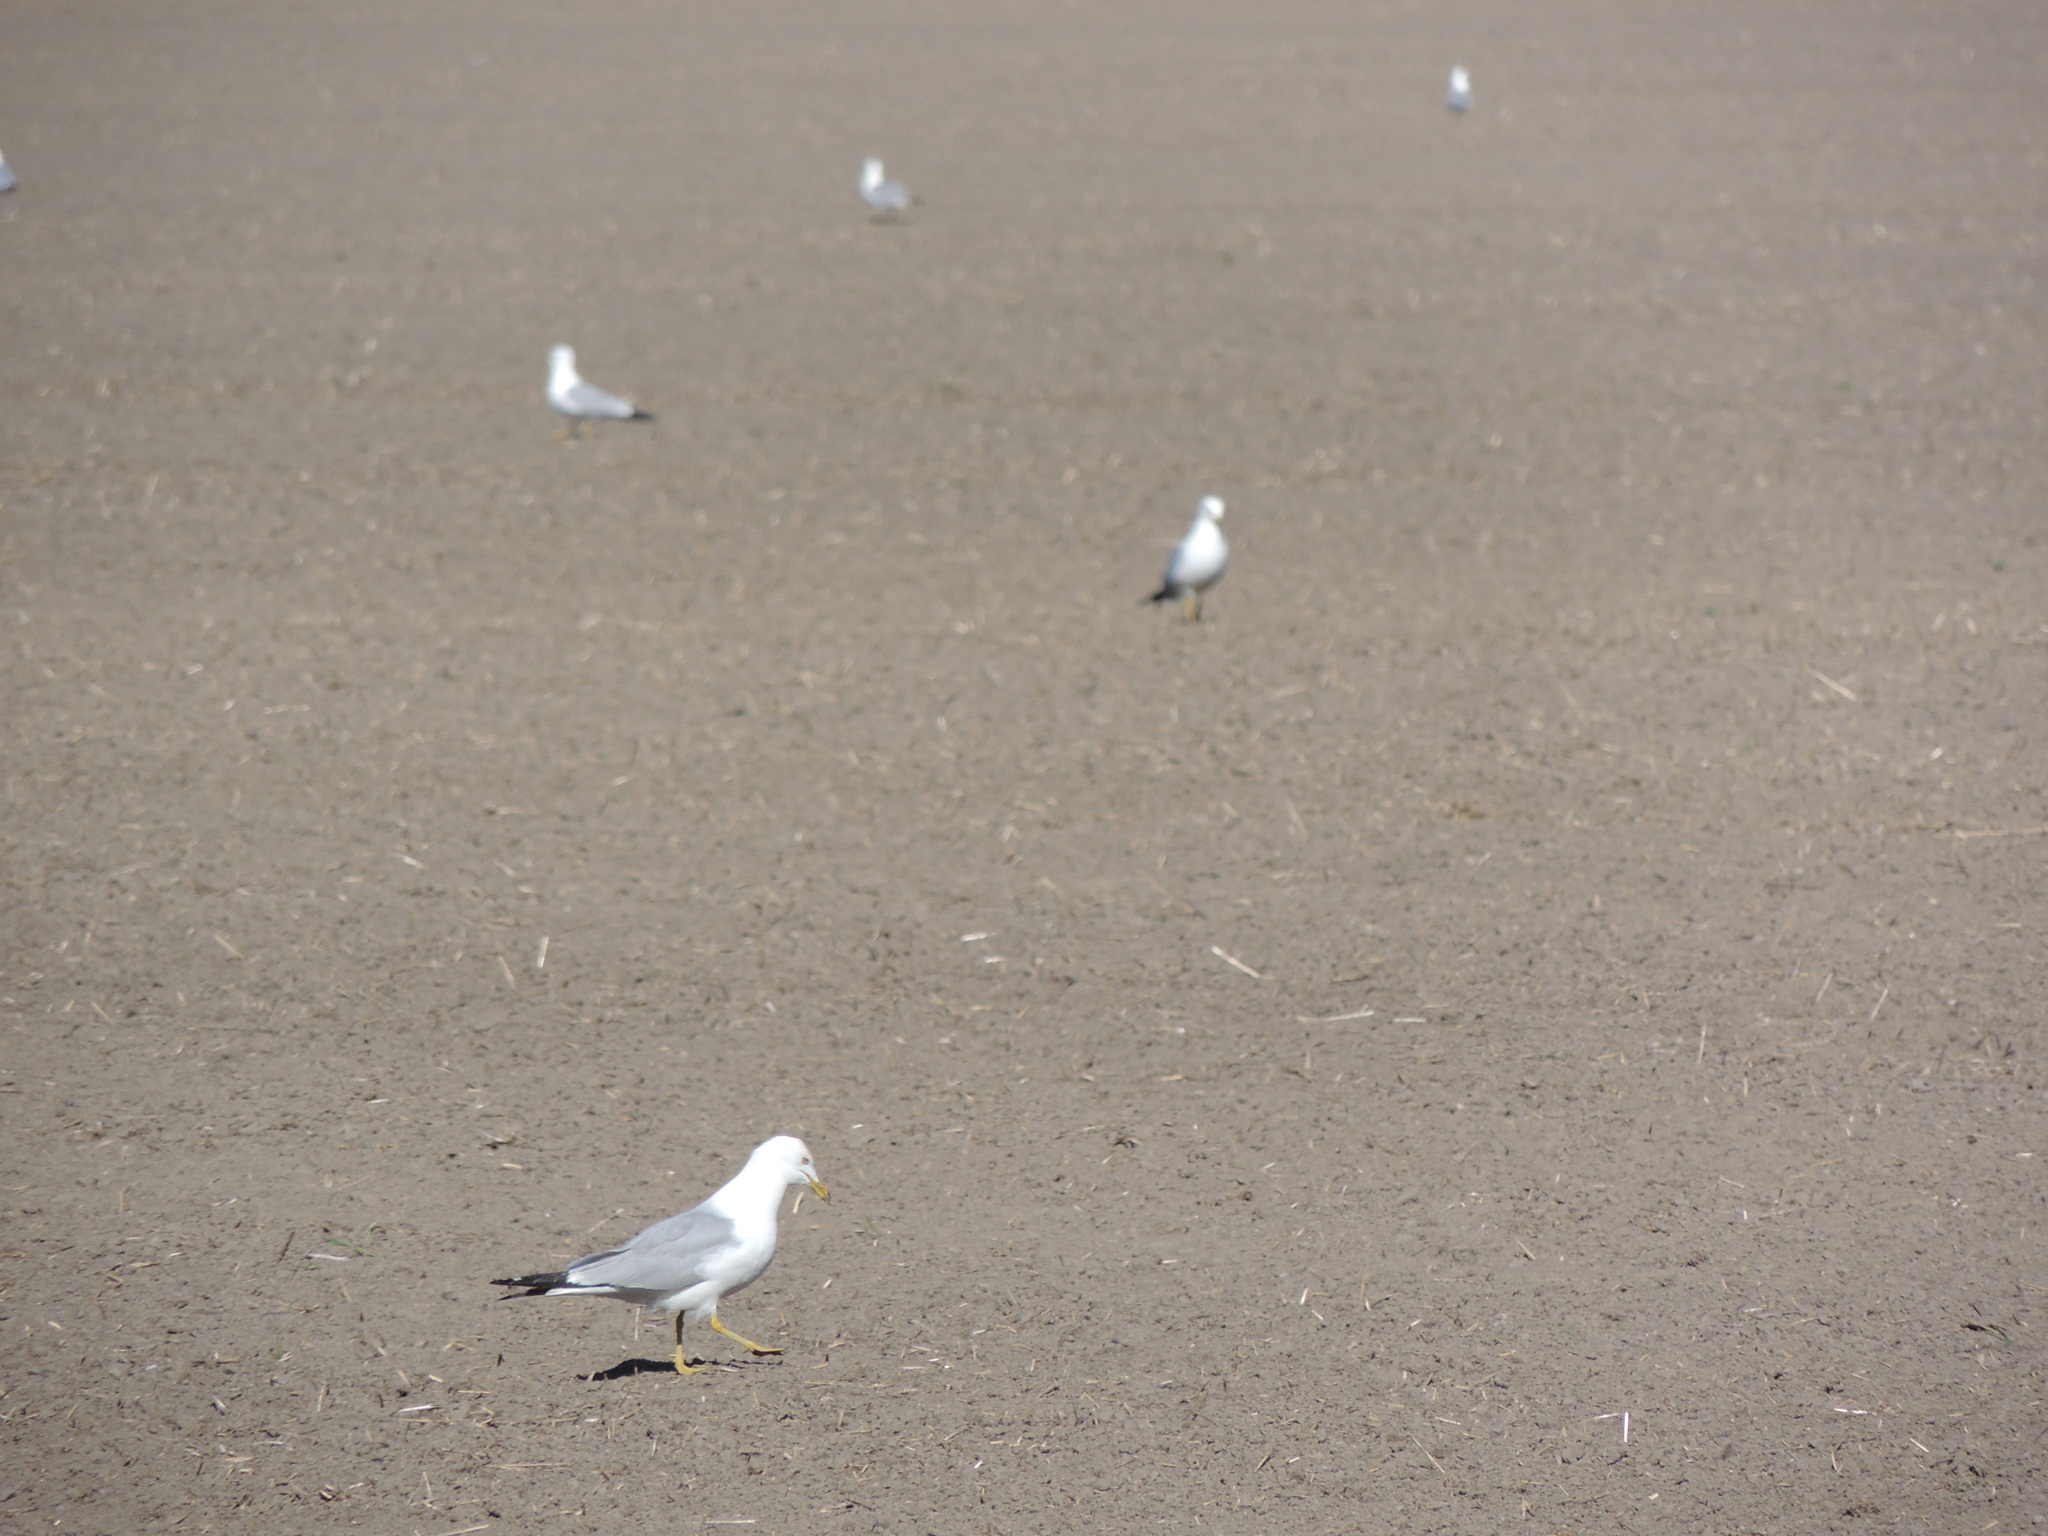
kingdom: Animalia
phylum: Chordata
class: Aves
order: Charadriiformes
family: Laridae
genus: Larus
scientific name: Larus delawarensis
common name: Ring-billed gull
